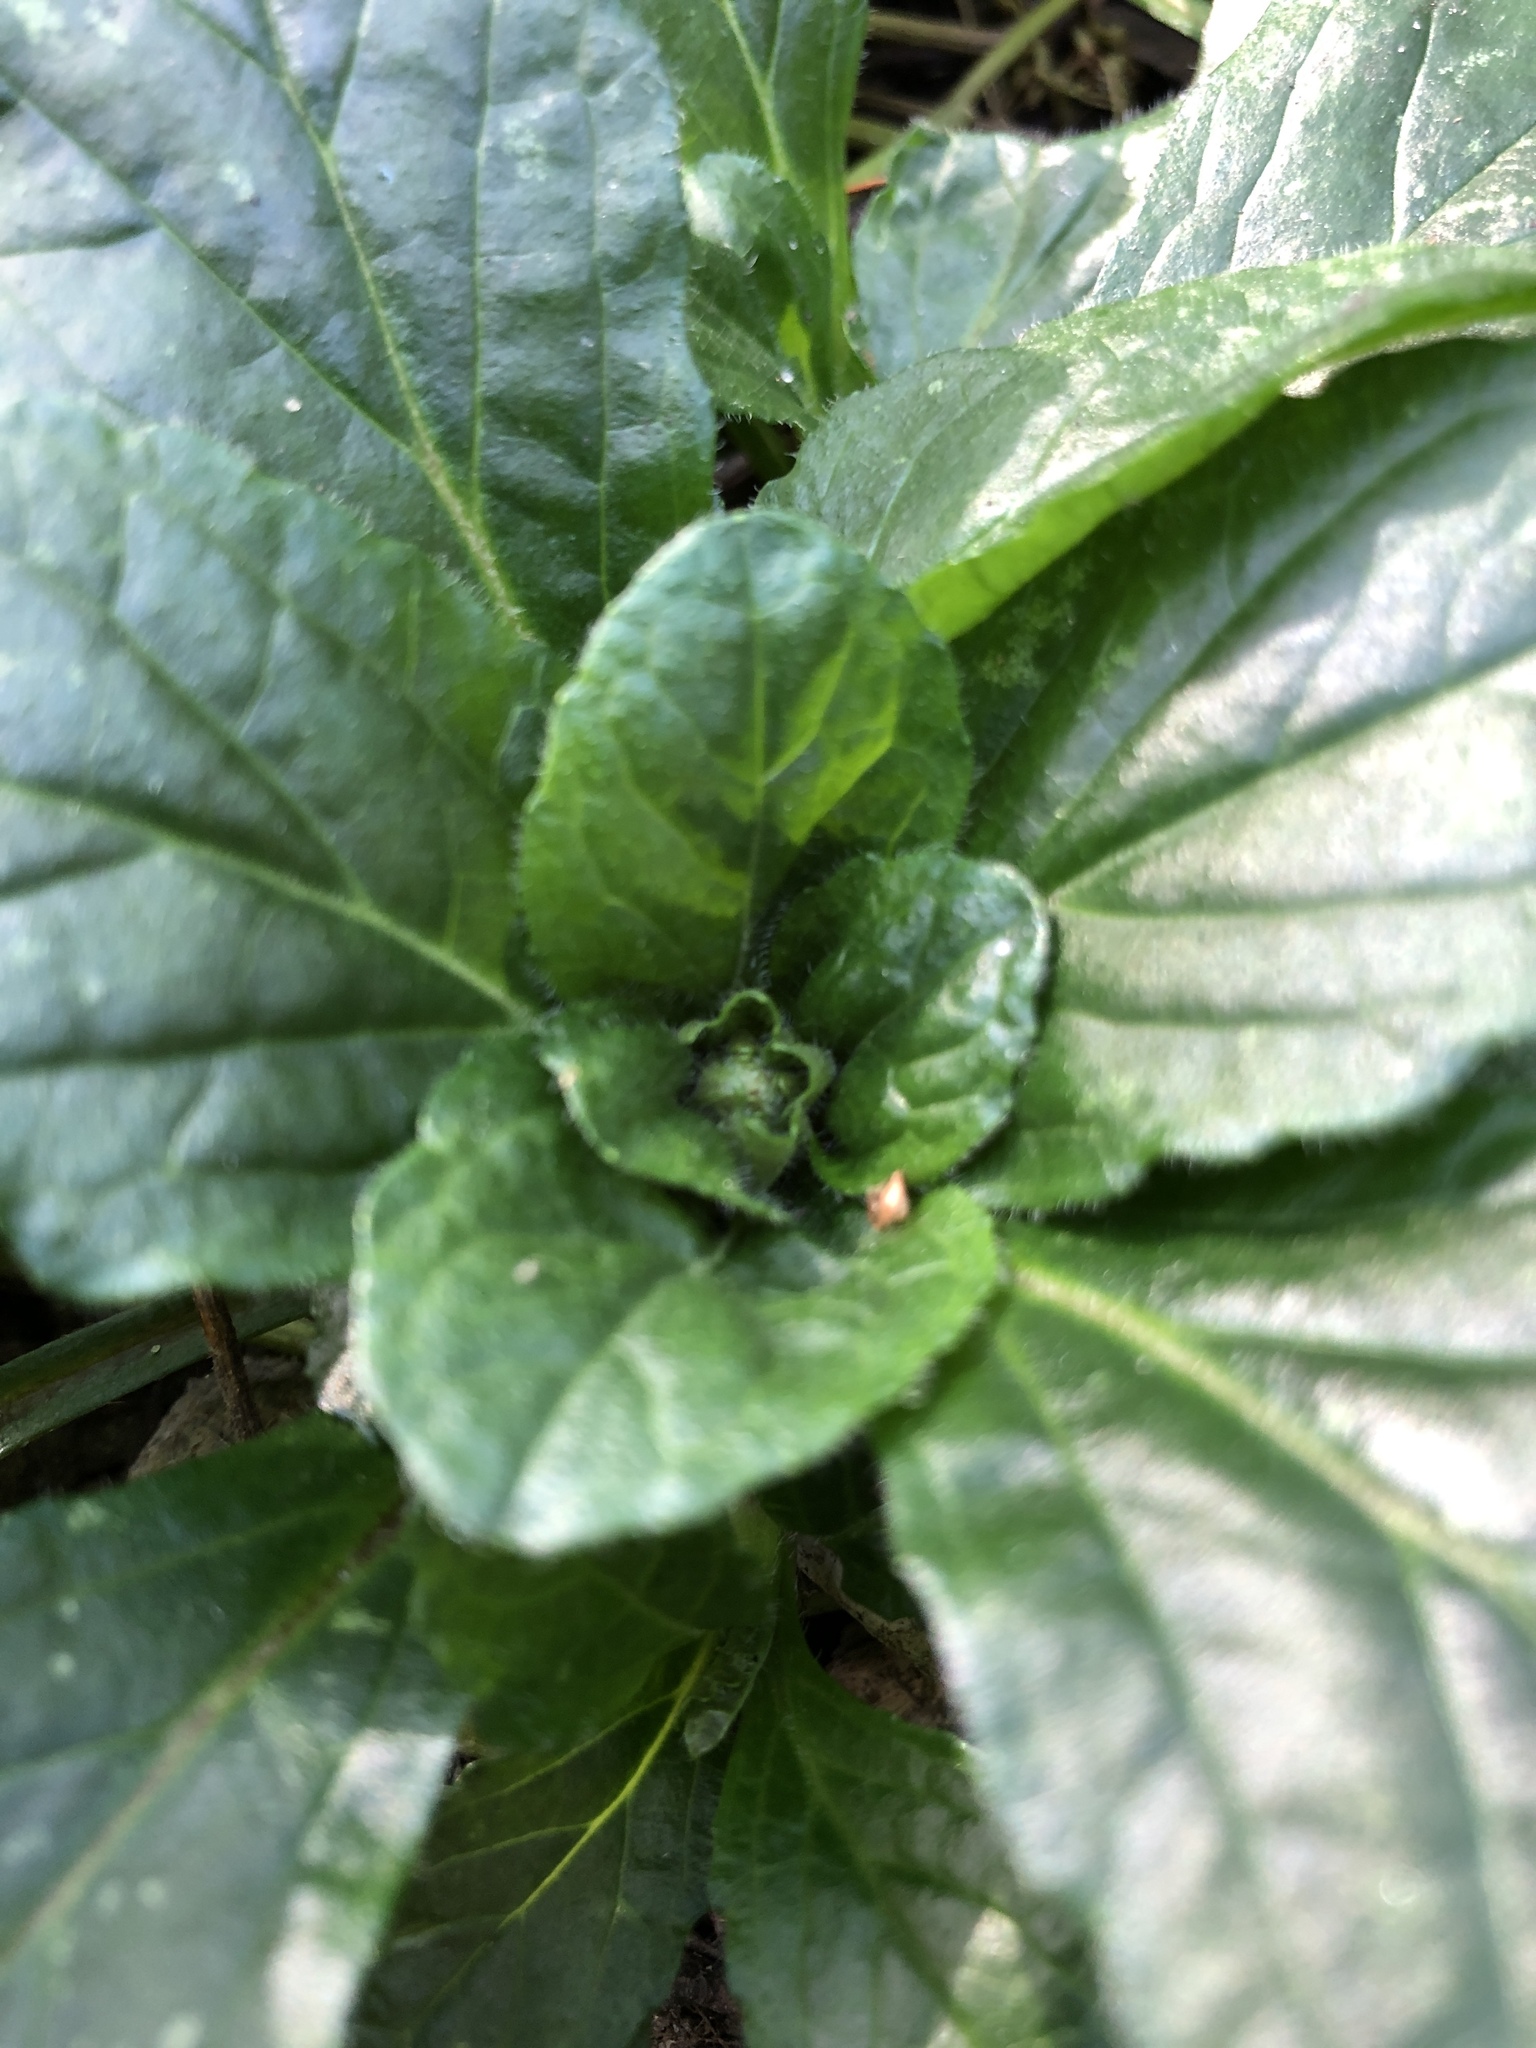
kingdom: Plantae
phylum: Tracheophyta
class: Magnoliopsida
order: Lamiales
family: Lamiaceae
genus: Ajuga
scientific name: Ajuga reptans
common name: Bugle
